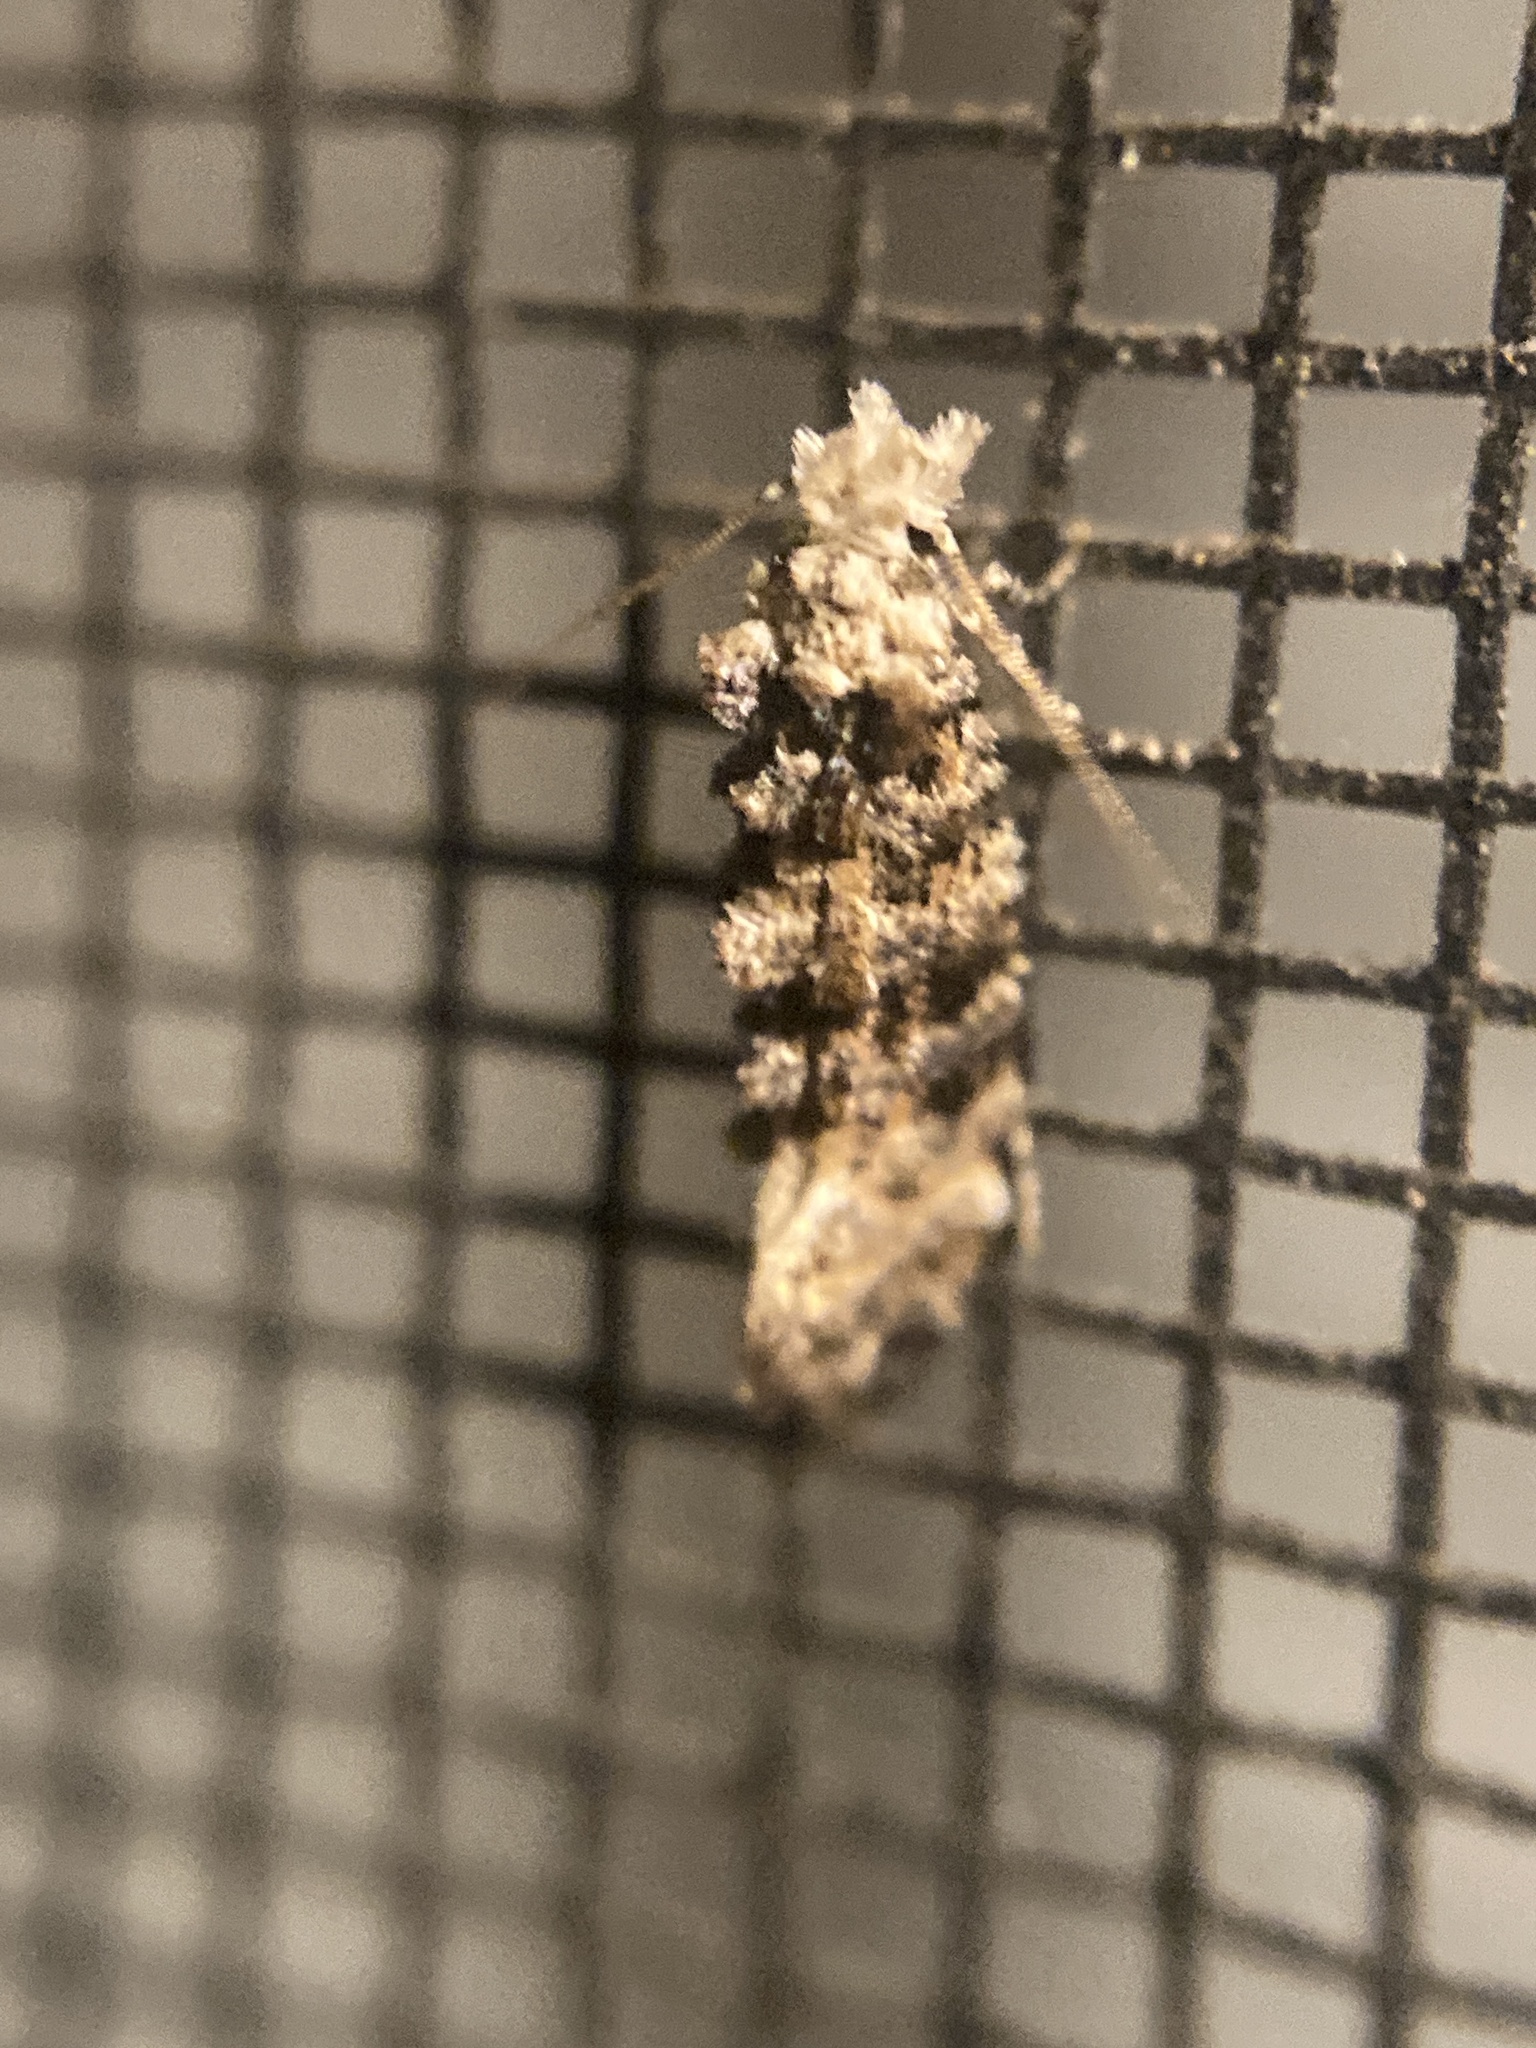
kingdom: Animalia
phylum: Arthropoda
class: Insecta
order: Lepidoptera
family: Tineidae
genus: Xylesthia
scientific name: Xylesthia pruniramiella
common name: Clemens' bark moth
